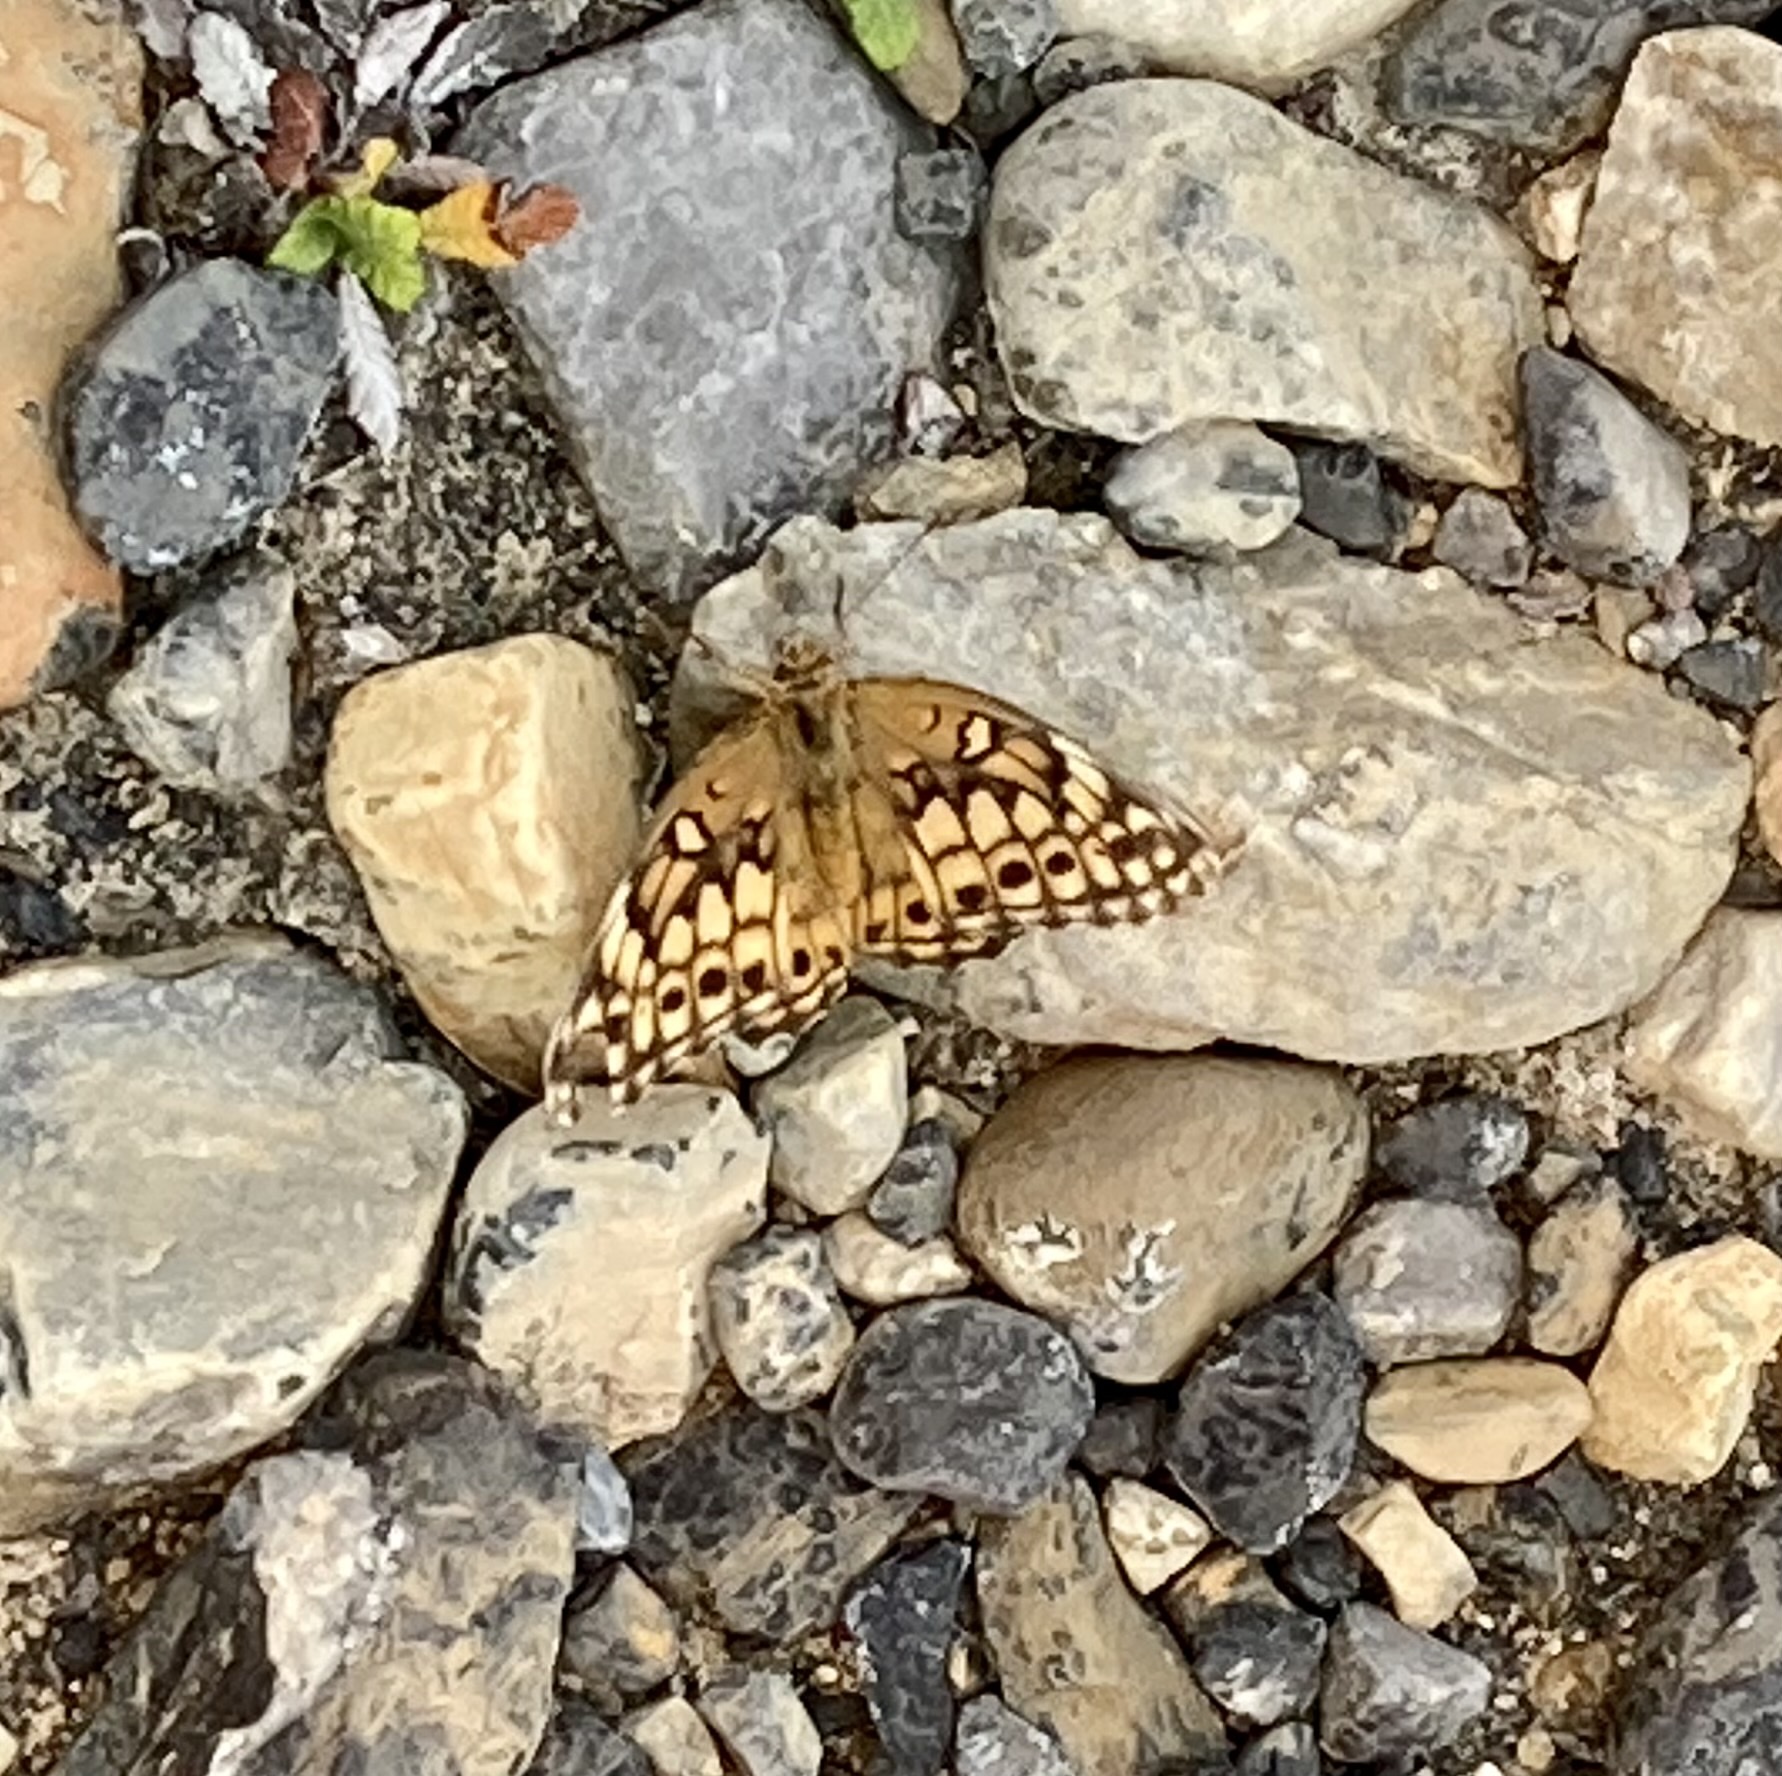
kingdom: Animalia
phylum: Arthropoda
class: Insecta
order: Lepidoptera
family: Nymphalidae
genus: Euptoieta
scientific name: Euptoieta claudia
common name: Variegated fritillary
